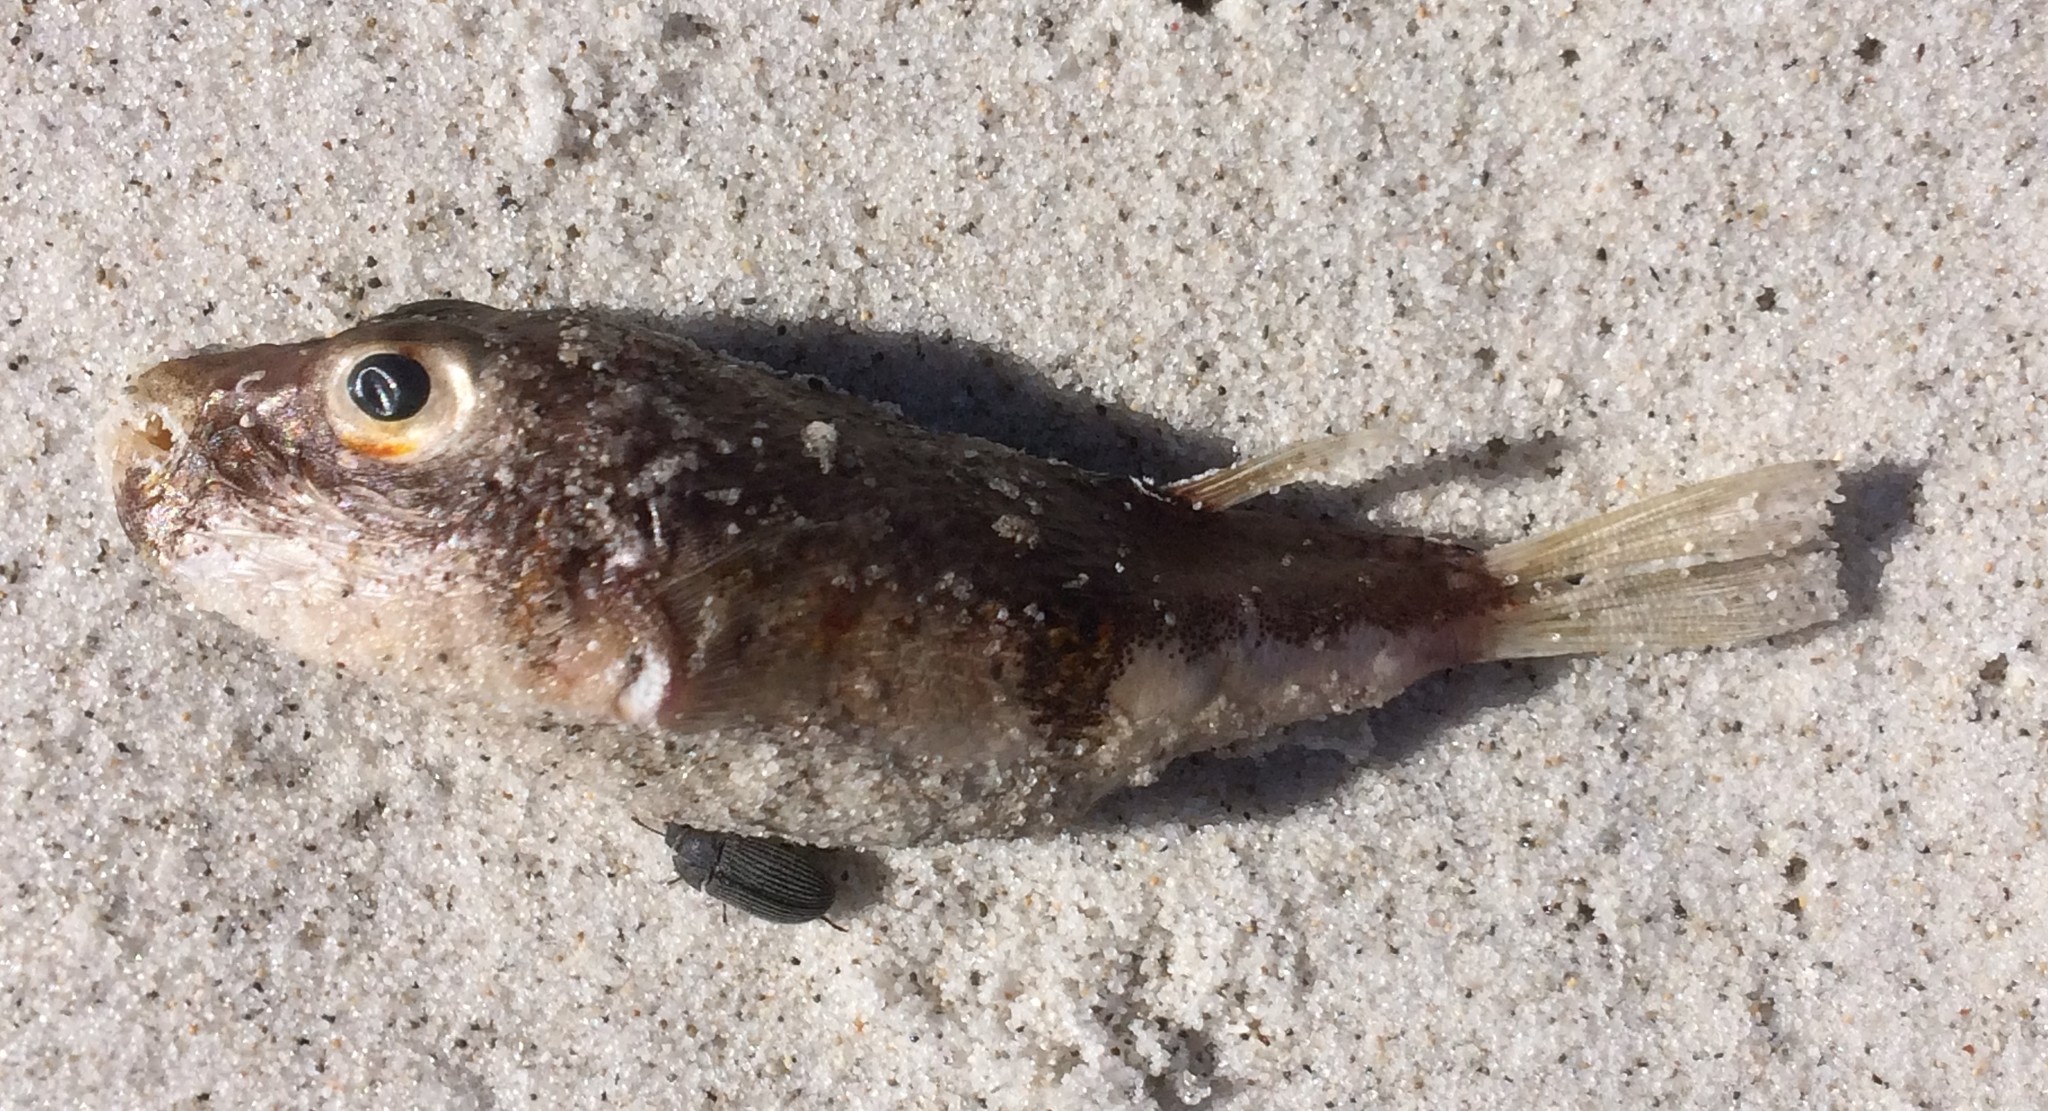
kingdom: Animalia
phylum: Chordata
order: Tetraodontiformes
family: Tetraodontidae
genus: Polyspina
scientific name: Polyspina piosae
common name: Orange-barred pufferfish
